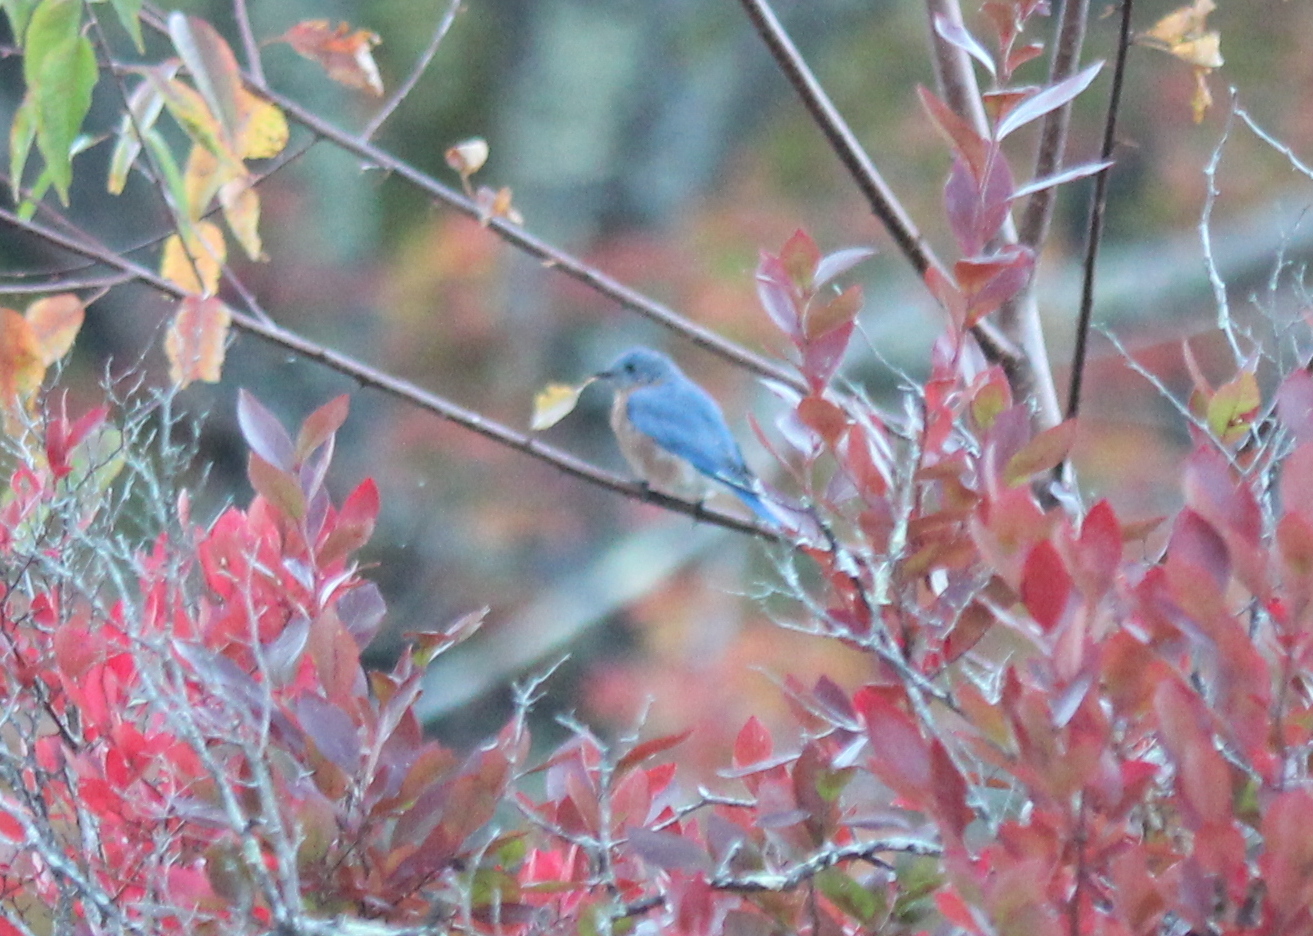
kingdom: Animalia
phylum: Chordata
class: Aves
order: Passeriformes
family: Turdidae
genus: Sialia
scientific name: Sialia sialis
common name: Eastern bluebird
